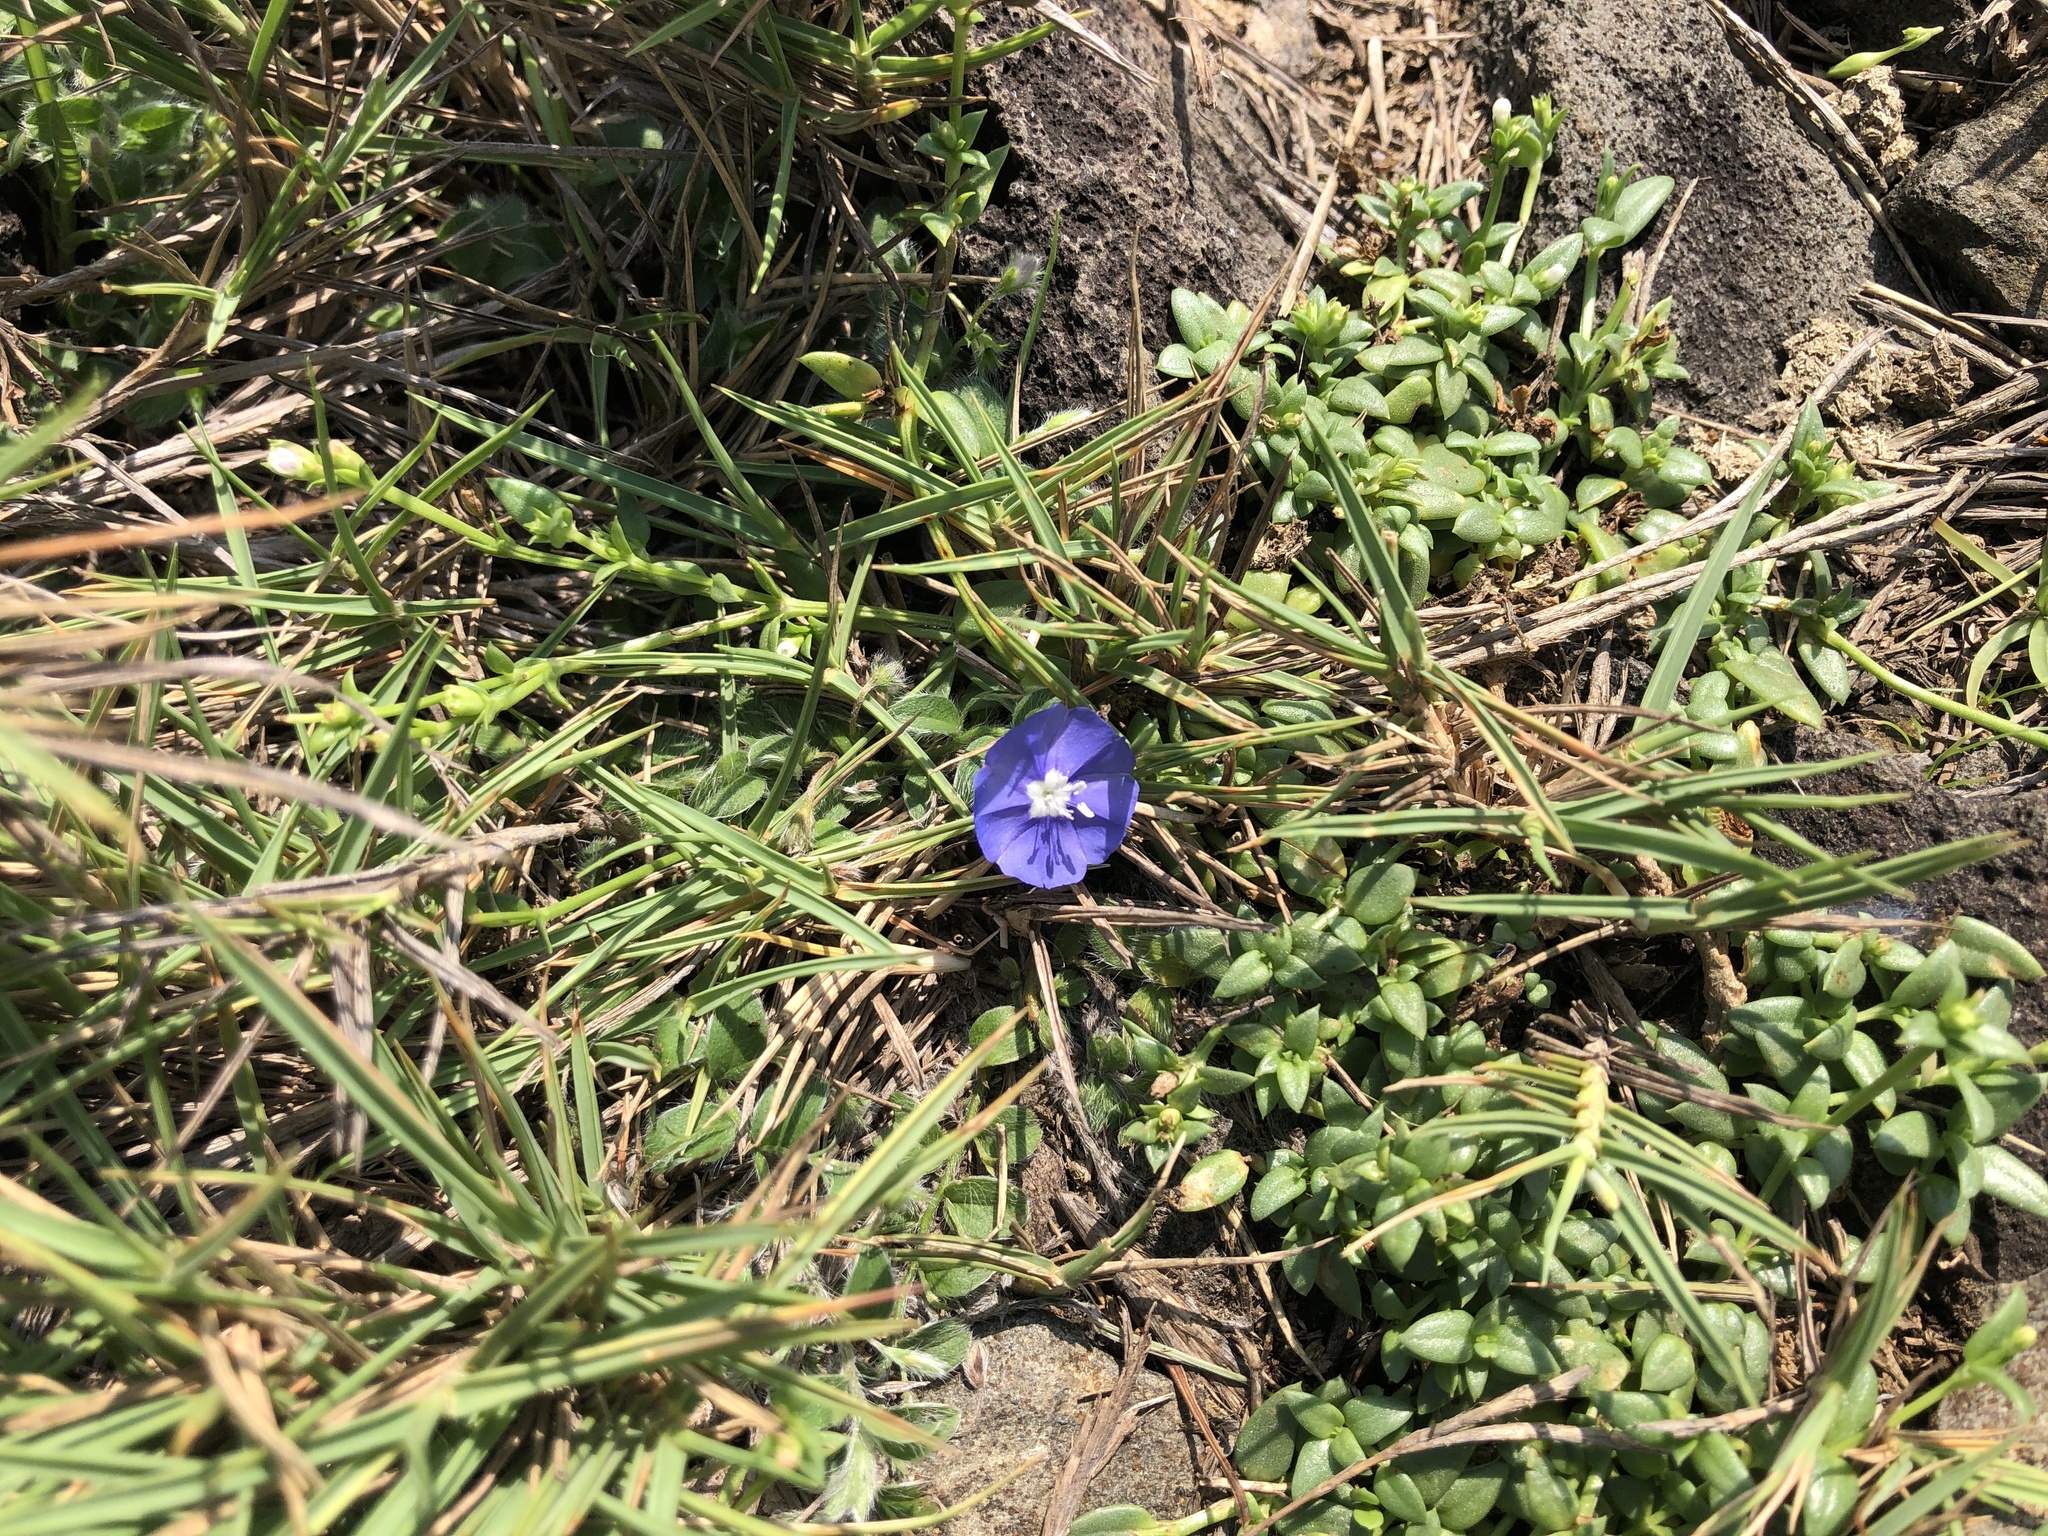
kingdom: Plantae
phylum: Tracheophyta
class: Magnoliopsida
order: Solanales
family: Convolvulaceae
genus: Evolvulus
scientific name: Evolvulus alsinoides
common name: Slender dwarf morning-glory
